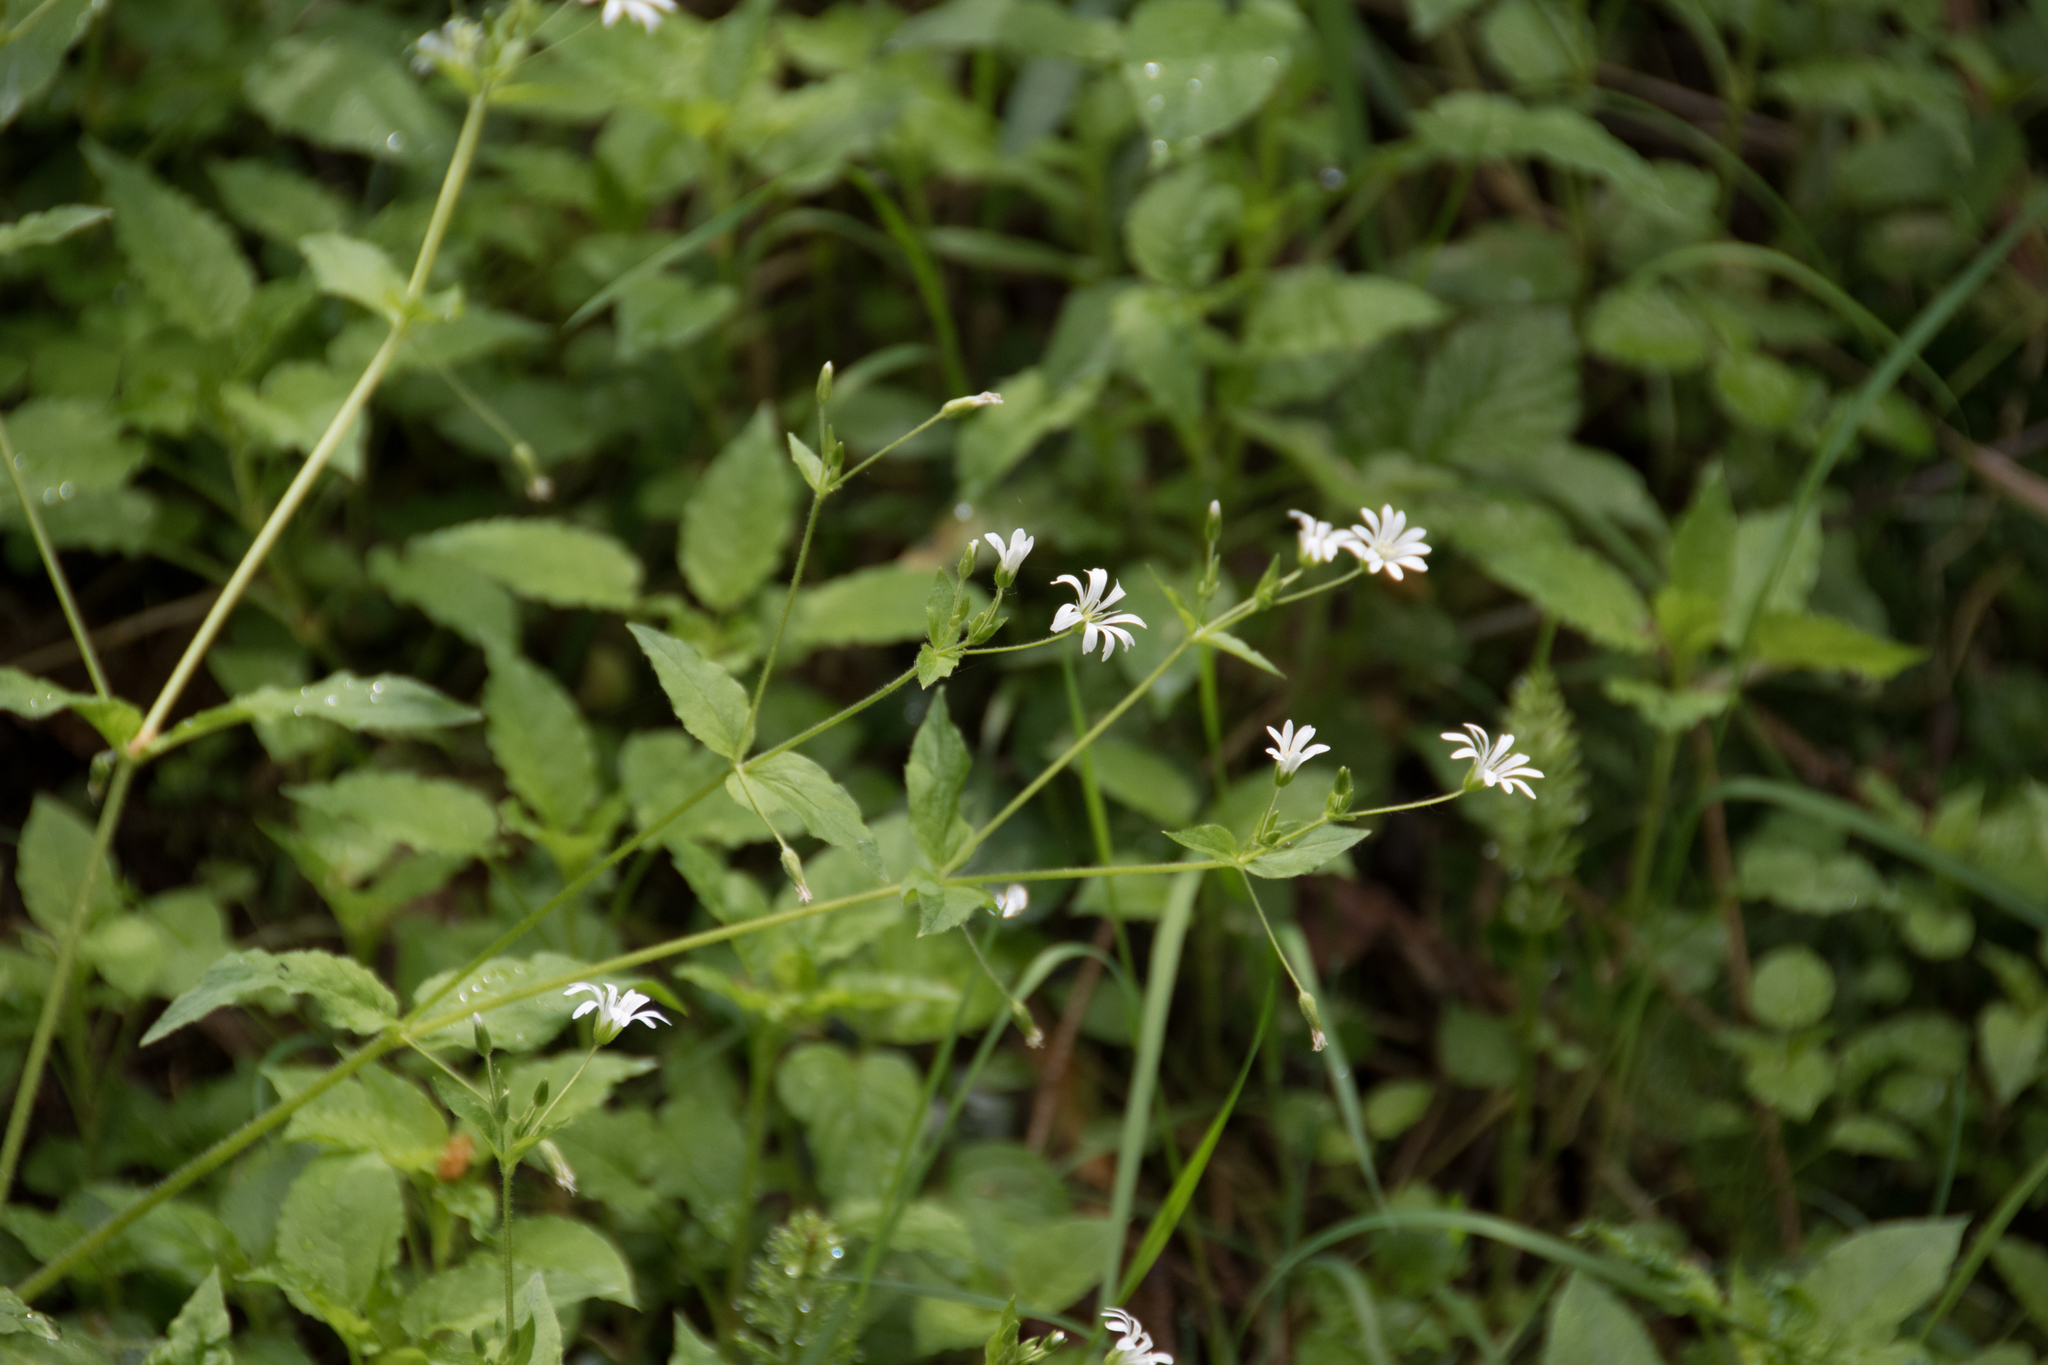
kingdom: Plantae
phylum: Tracheophyta
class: Magnoliopsida
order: Caryophyllales
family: Caryophyllaceae
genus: Stellaria
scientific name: Stellaria nemorum
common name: Wood stitchwort
